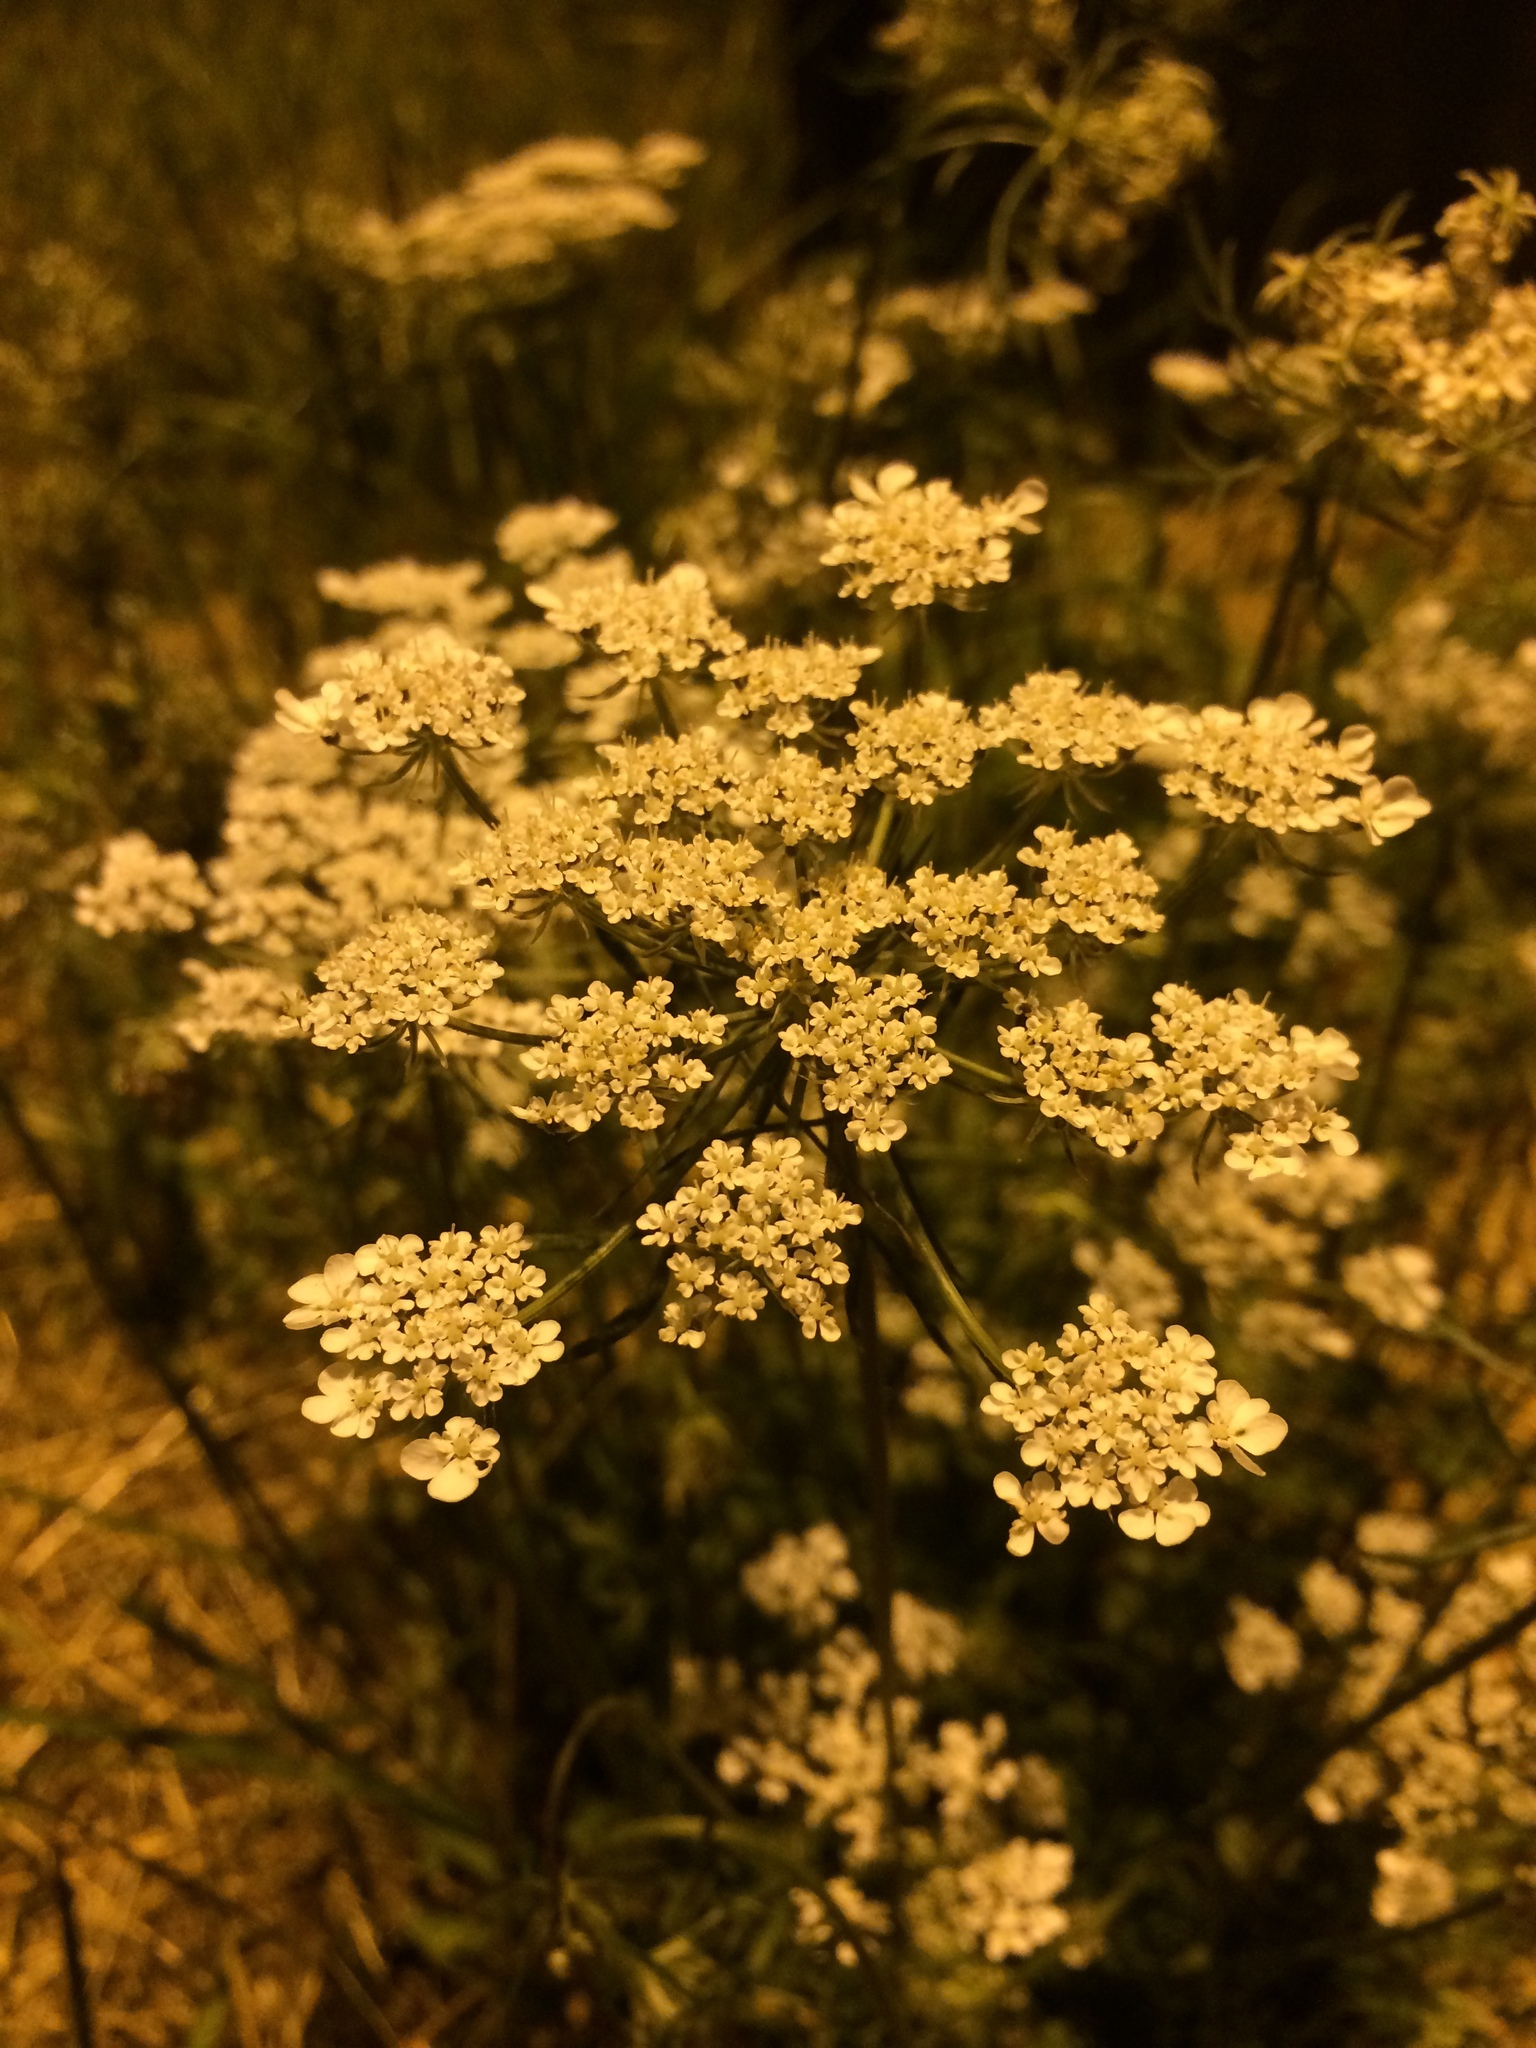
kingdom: Plantae
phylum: Tracheophyta
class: Magnoliopsida
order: Apiales
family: Apiaceae
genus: Daucus
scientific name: Daucus carota
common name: Wild carrot
